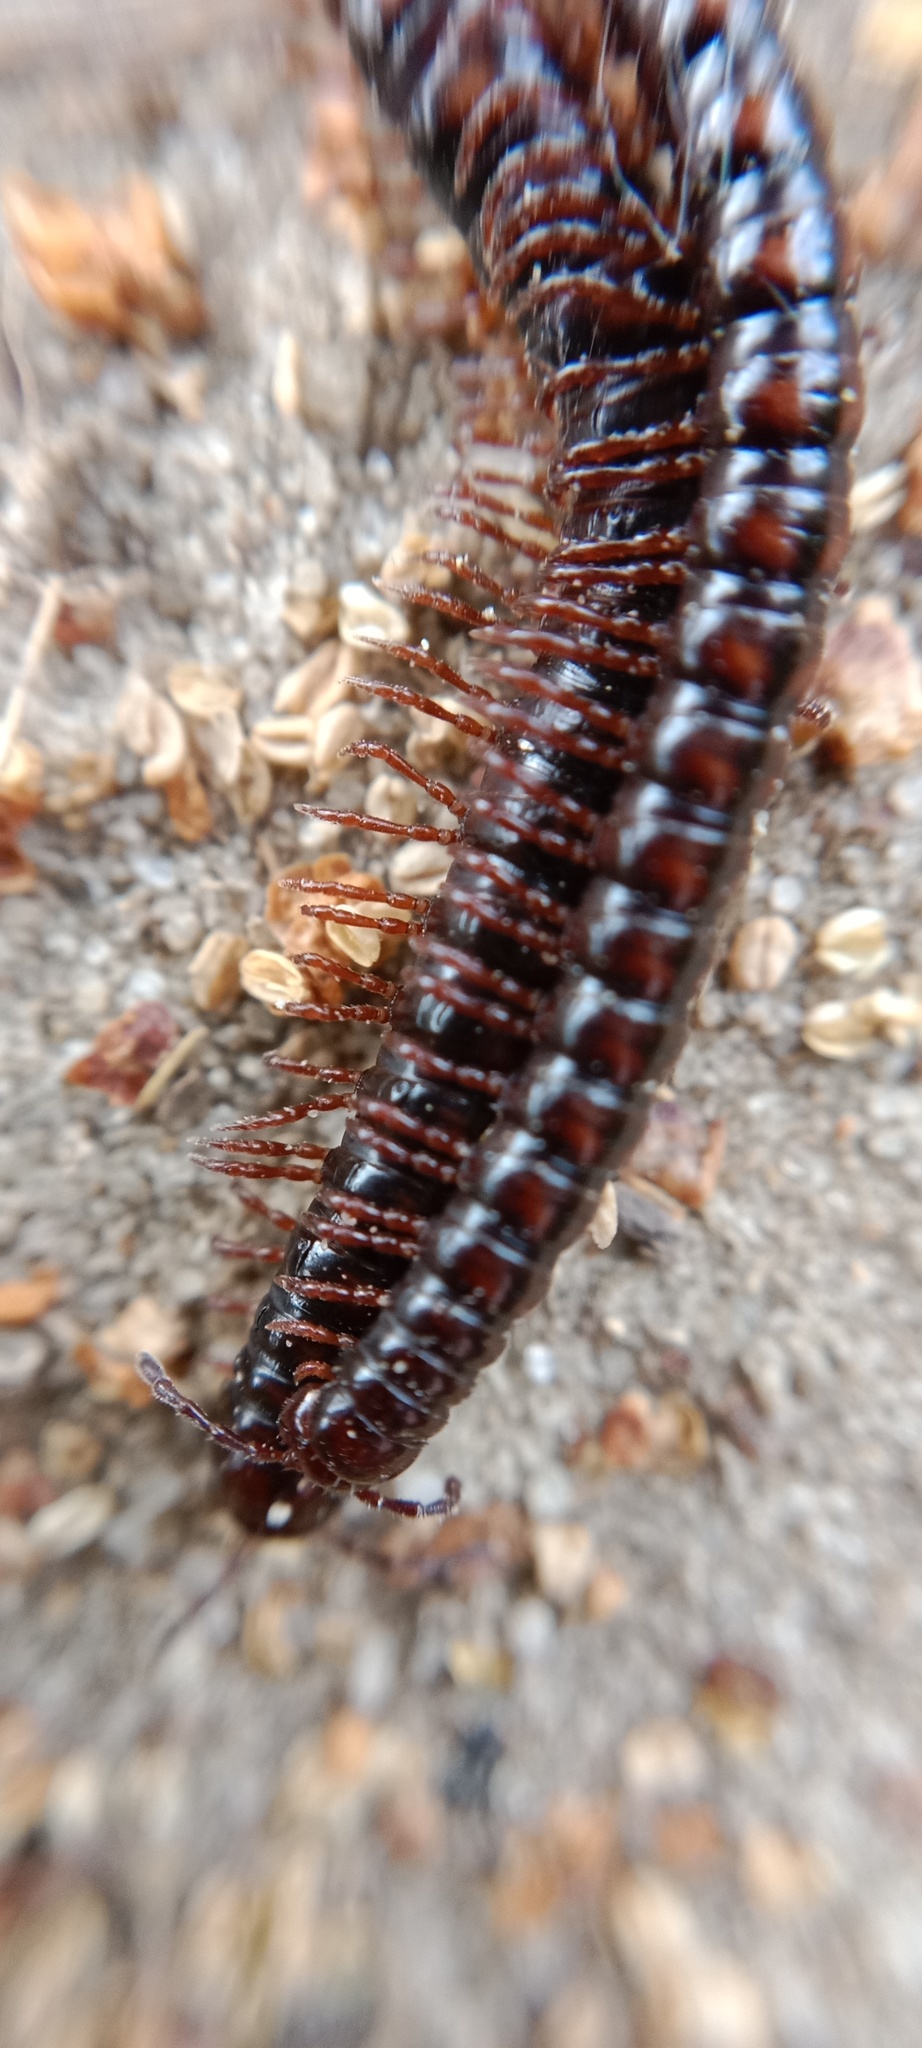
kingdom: Animalia
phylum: Arthropoda
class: Diplopoda
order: Polydesmida
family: Paradoxosomatidae
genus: Strongylosoma
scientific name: Strongylosoma stigmatosus
